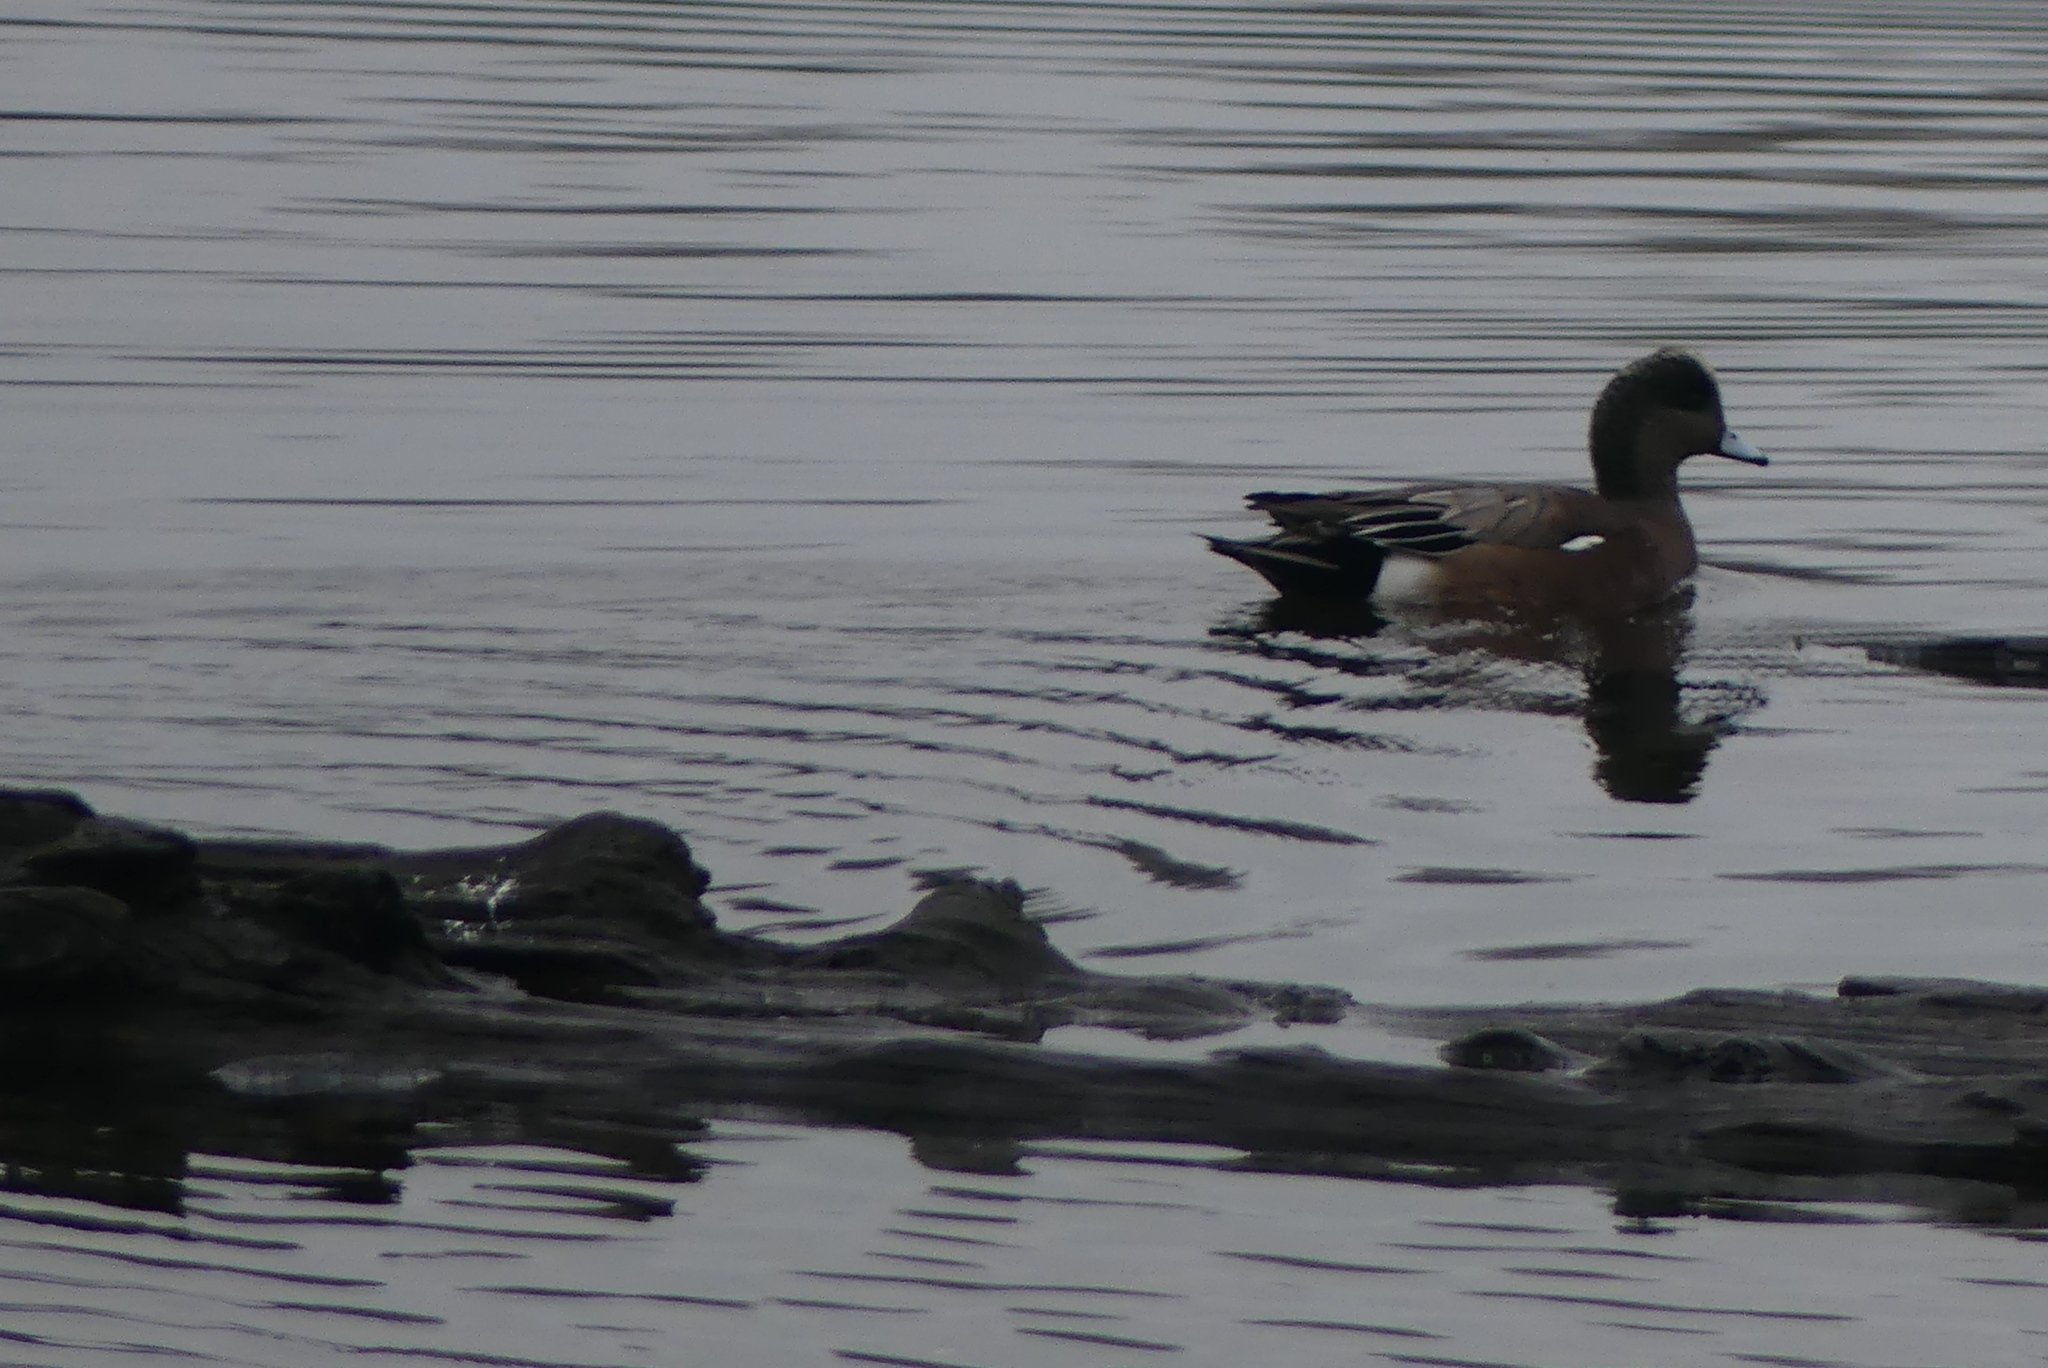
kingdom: Animalia
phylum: Chordata
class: Aves
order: Anseriformes
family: Anatidae
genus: Mareca
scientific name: Mareca americana
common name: American wigeon
